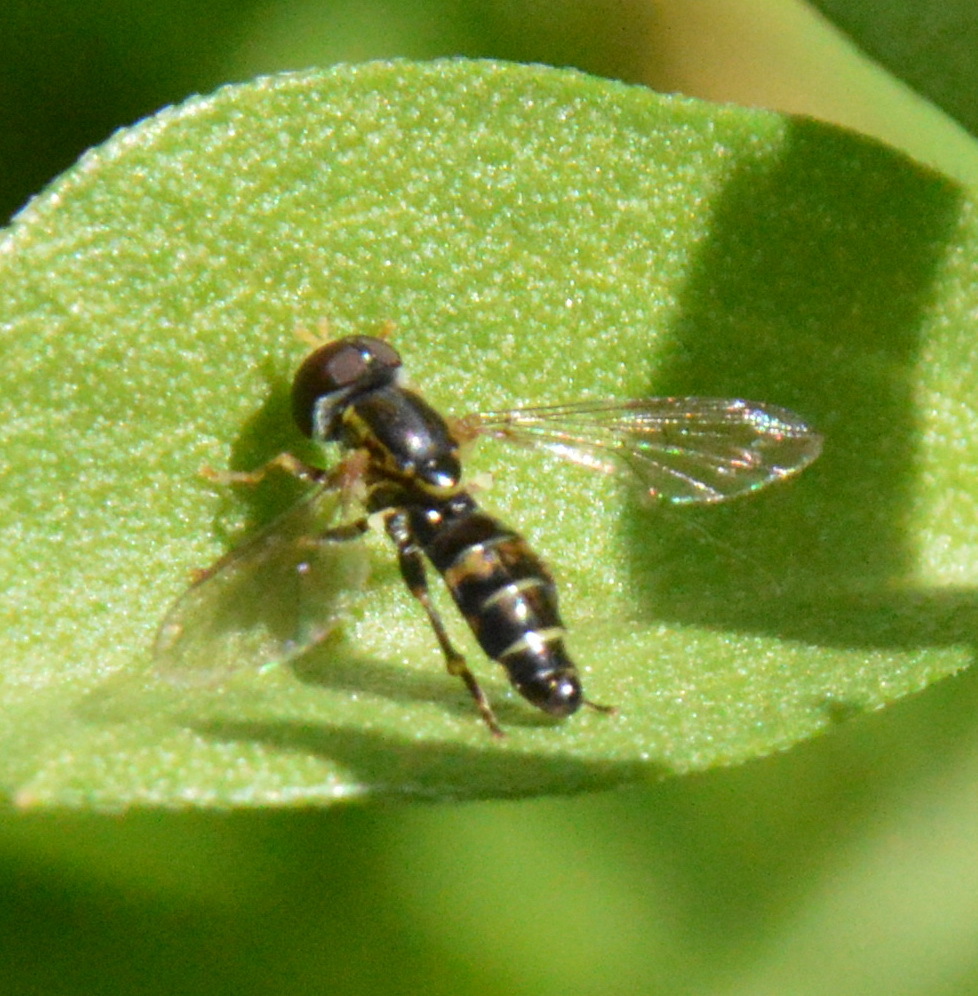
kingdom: Animalia
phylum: Arthropoda
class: Insecta
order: Diptera
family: Syrphidae
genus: Toxomerus
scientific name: Toxomerus occidentalis
